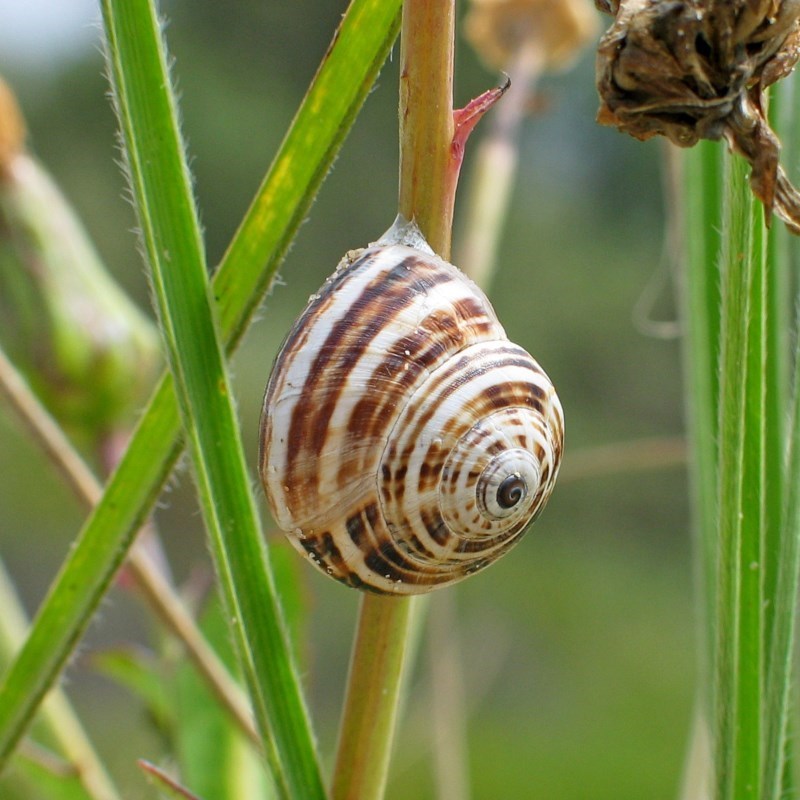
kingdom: Animalia
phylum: Mollusca
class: Gastropoda
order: Stylommatophora
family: Helicidae
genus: Theba
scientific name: Theba pisana
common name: White snail
